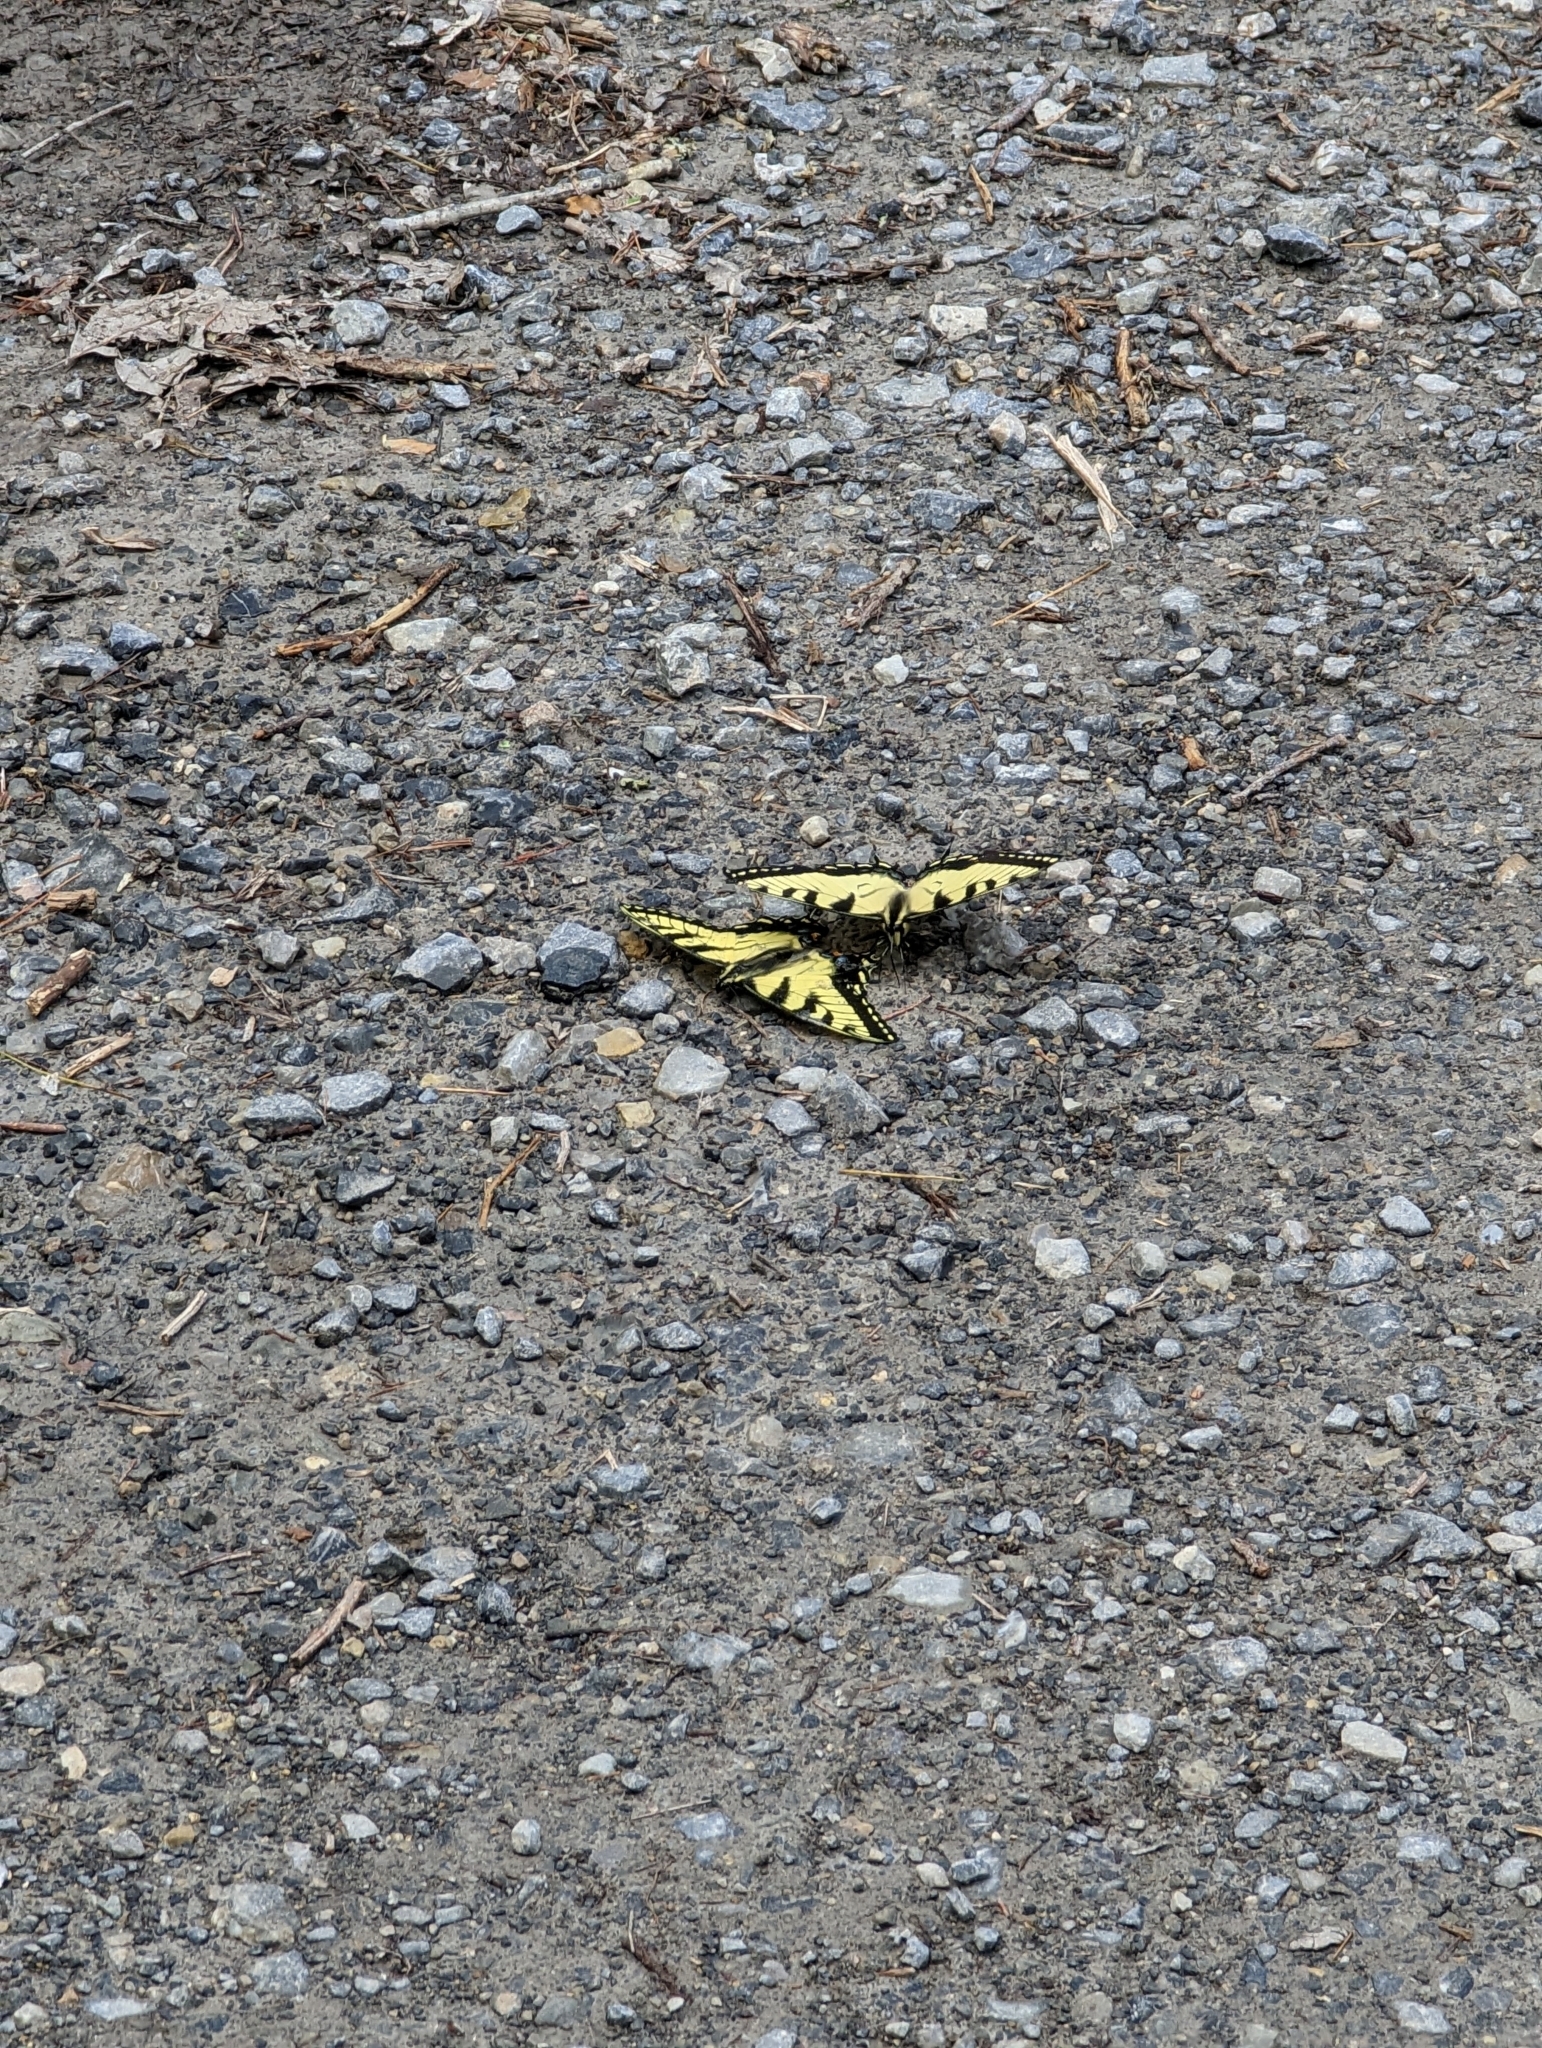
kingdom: Animalia
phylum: Arthropoda
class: Insecta
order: Lepidoptera
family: Papilionidae
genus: Papilio
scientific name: Papilio glaucus
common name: Tiger swallowtail
